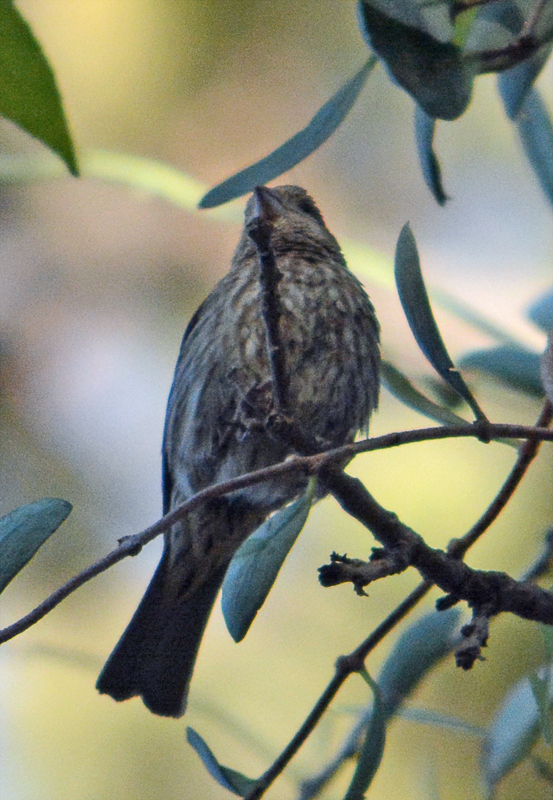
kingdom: Animalia
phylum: Chordata
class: Aves
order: Passeriformes
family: Fringillidae
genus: Haemorhous
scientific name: Haemorhous mexicanus
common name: House finch
